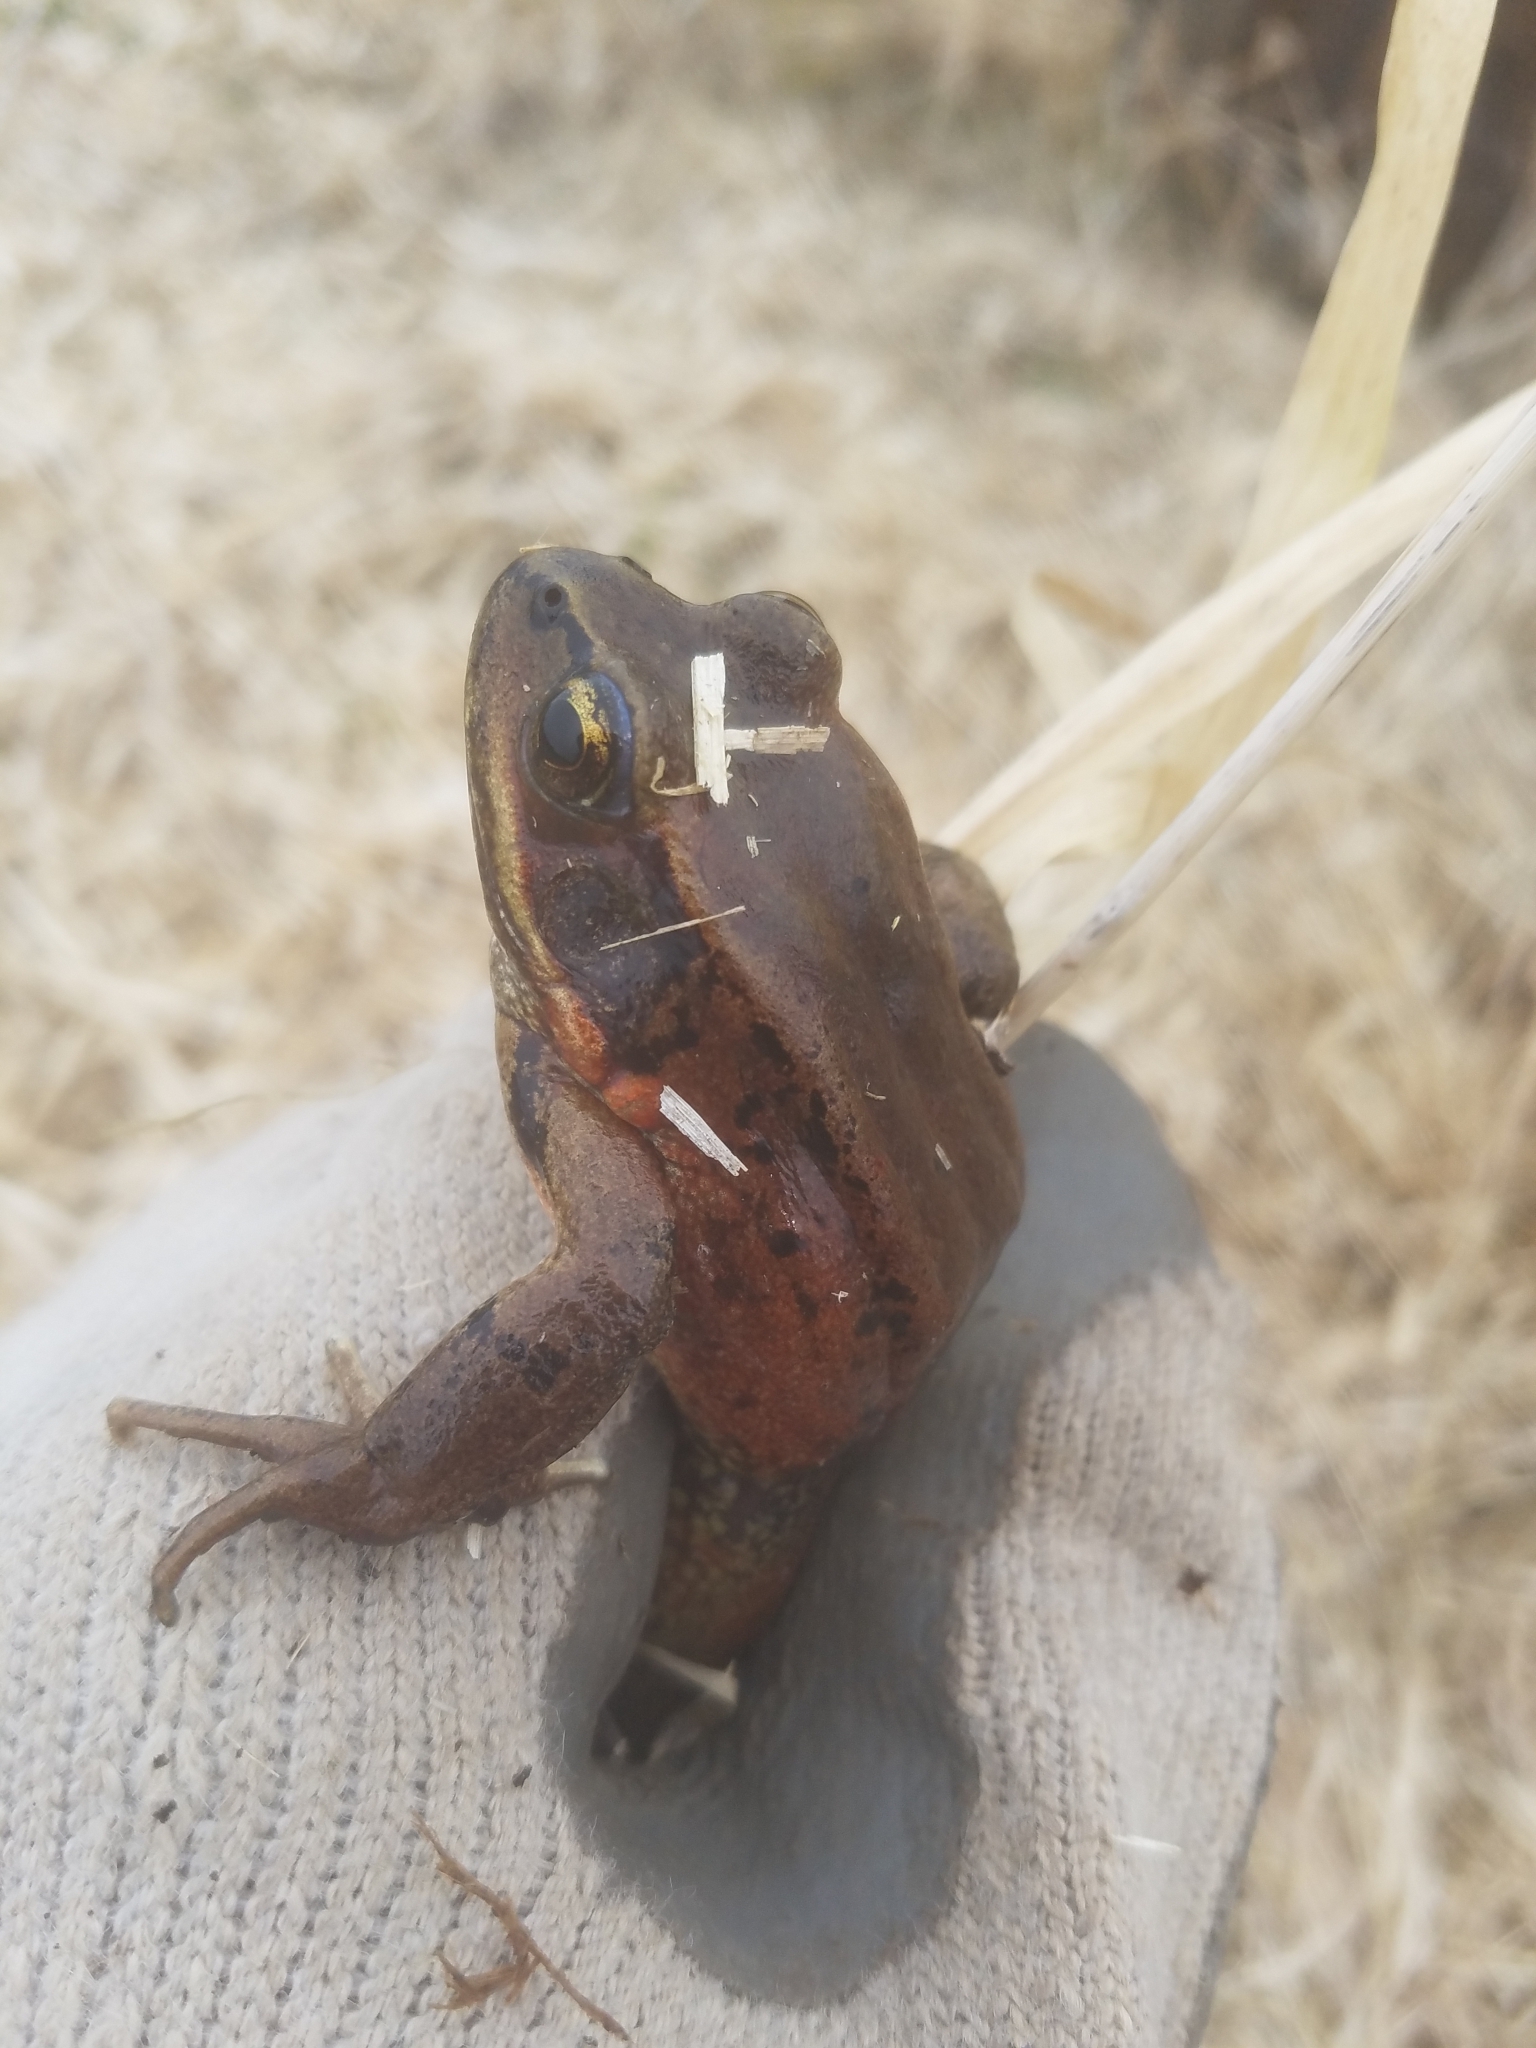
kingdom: Animalia
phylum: Chordata
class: Amphibia
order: Anura
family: Ranidae
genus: Rana
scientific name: Rana aurora
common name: Red-legged frog
